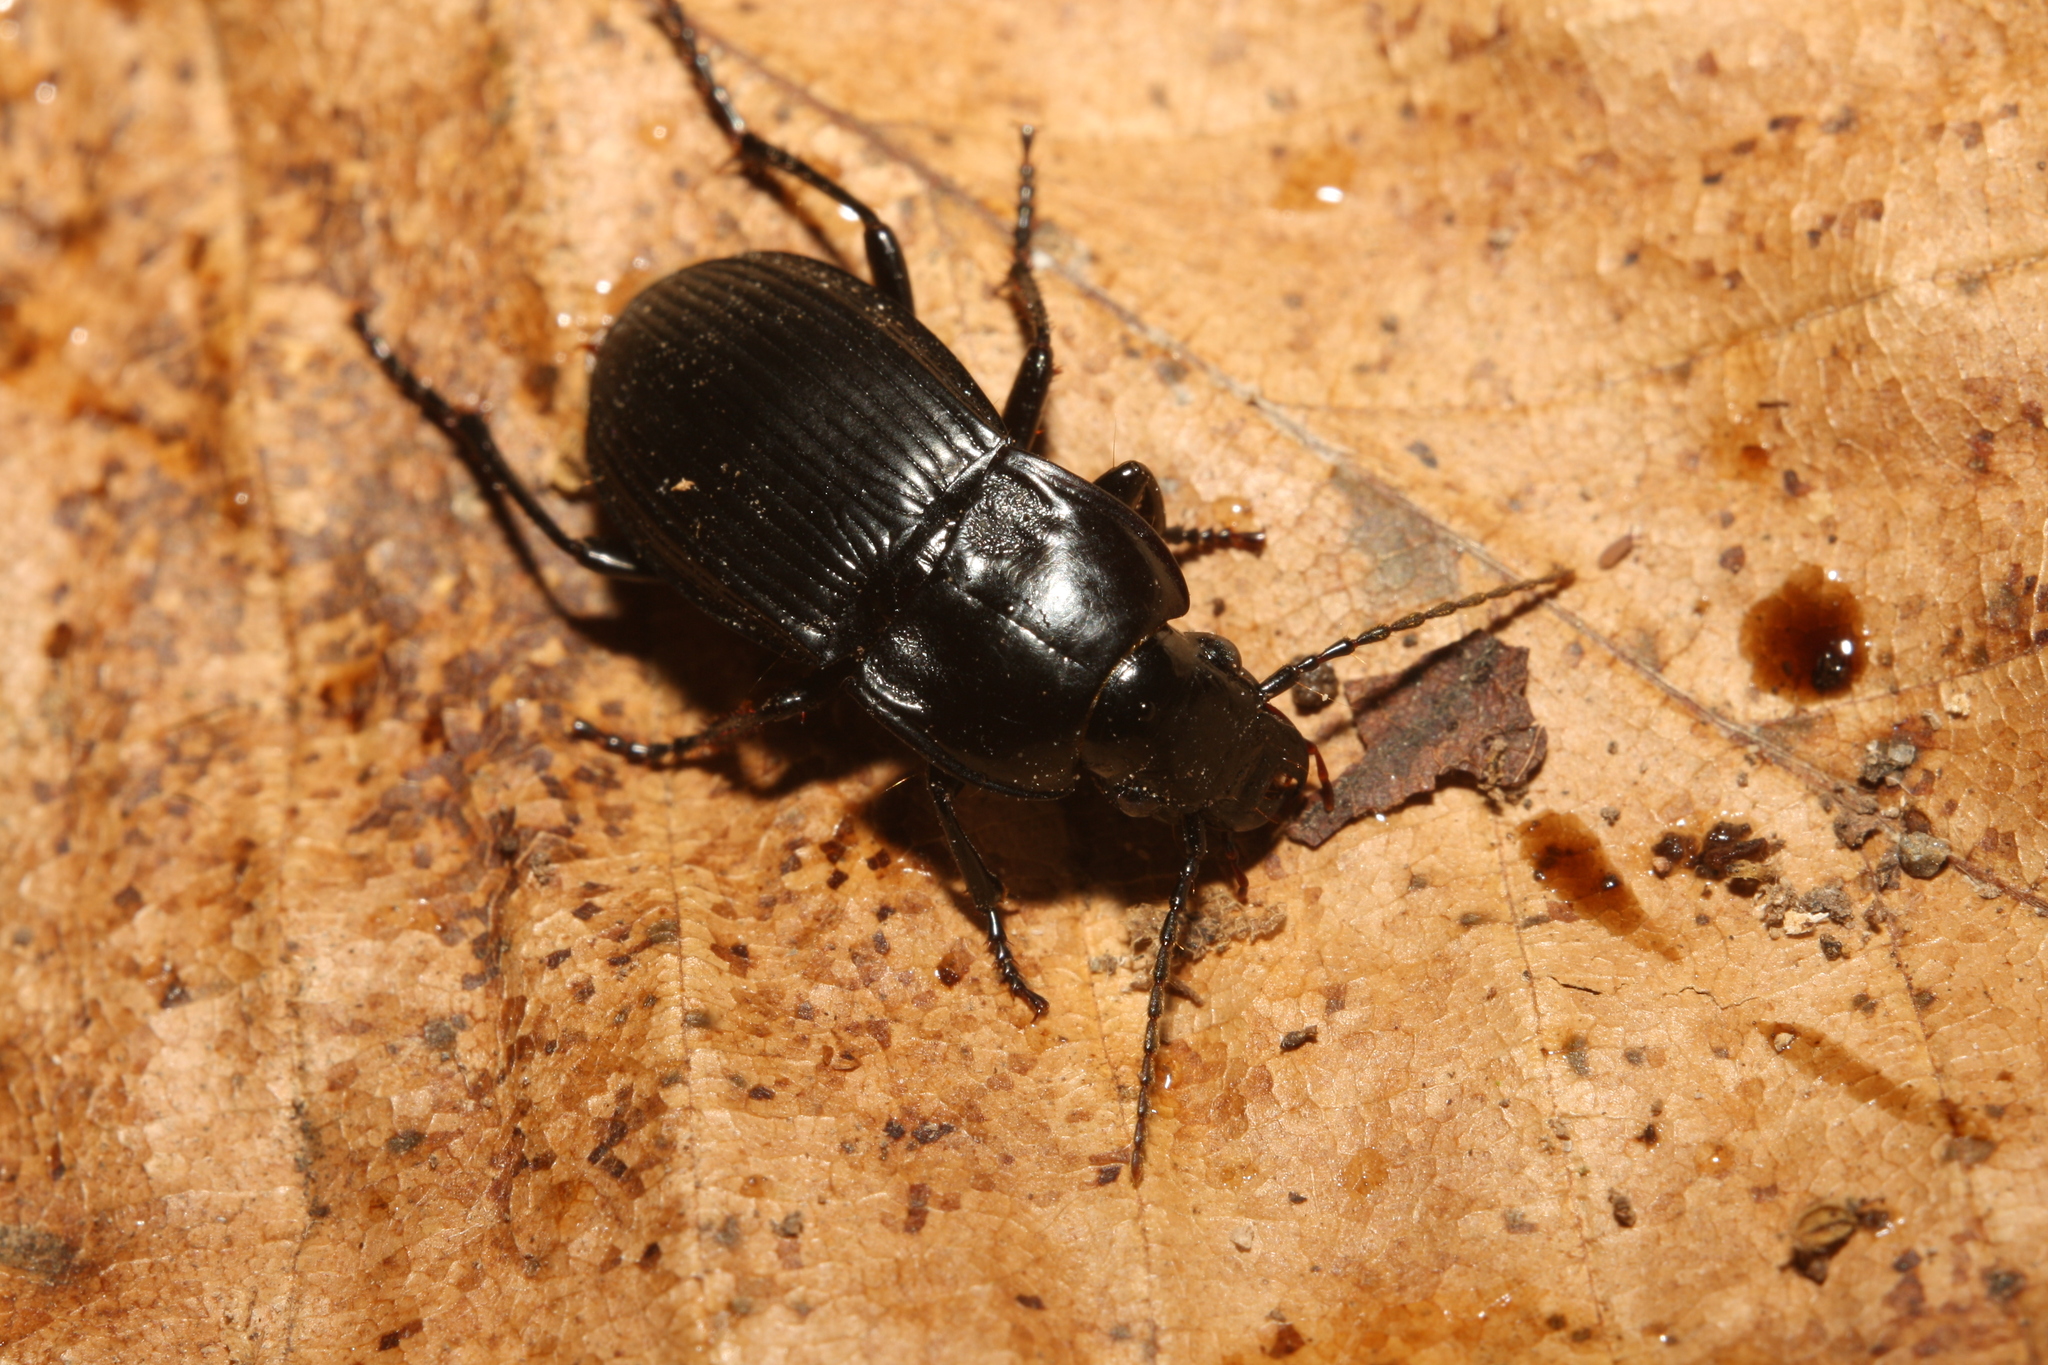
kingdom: Animalia
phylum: Arthropoda
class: Insecta
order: Coleoptera
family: Carabidae
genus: Abax
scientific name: Abax carinatus
